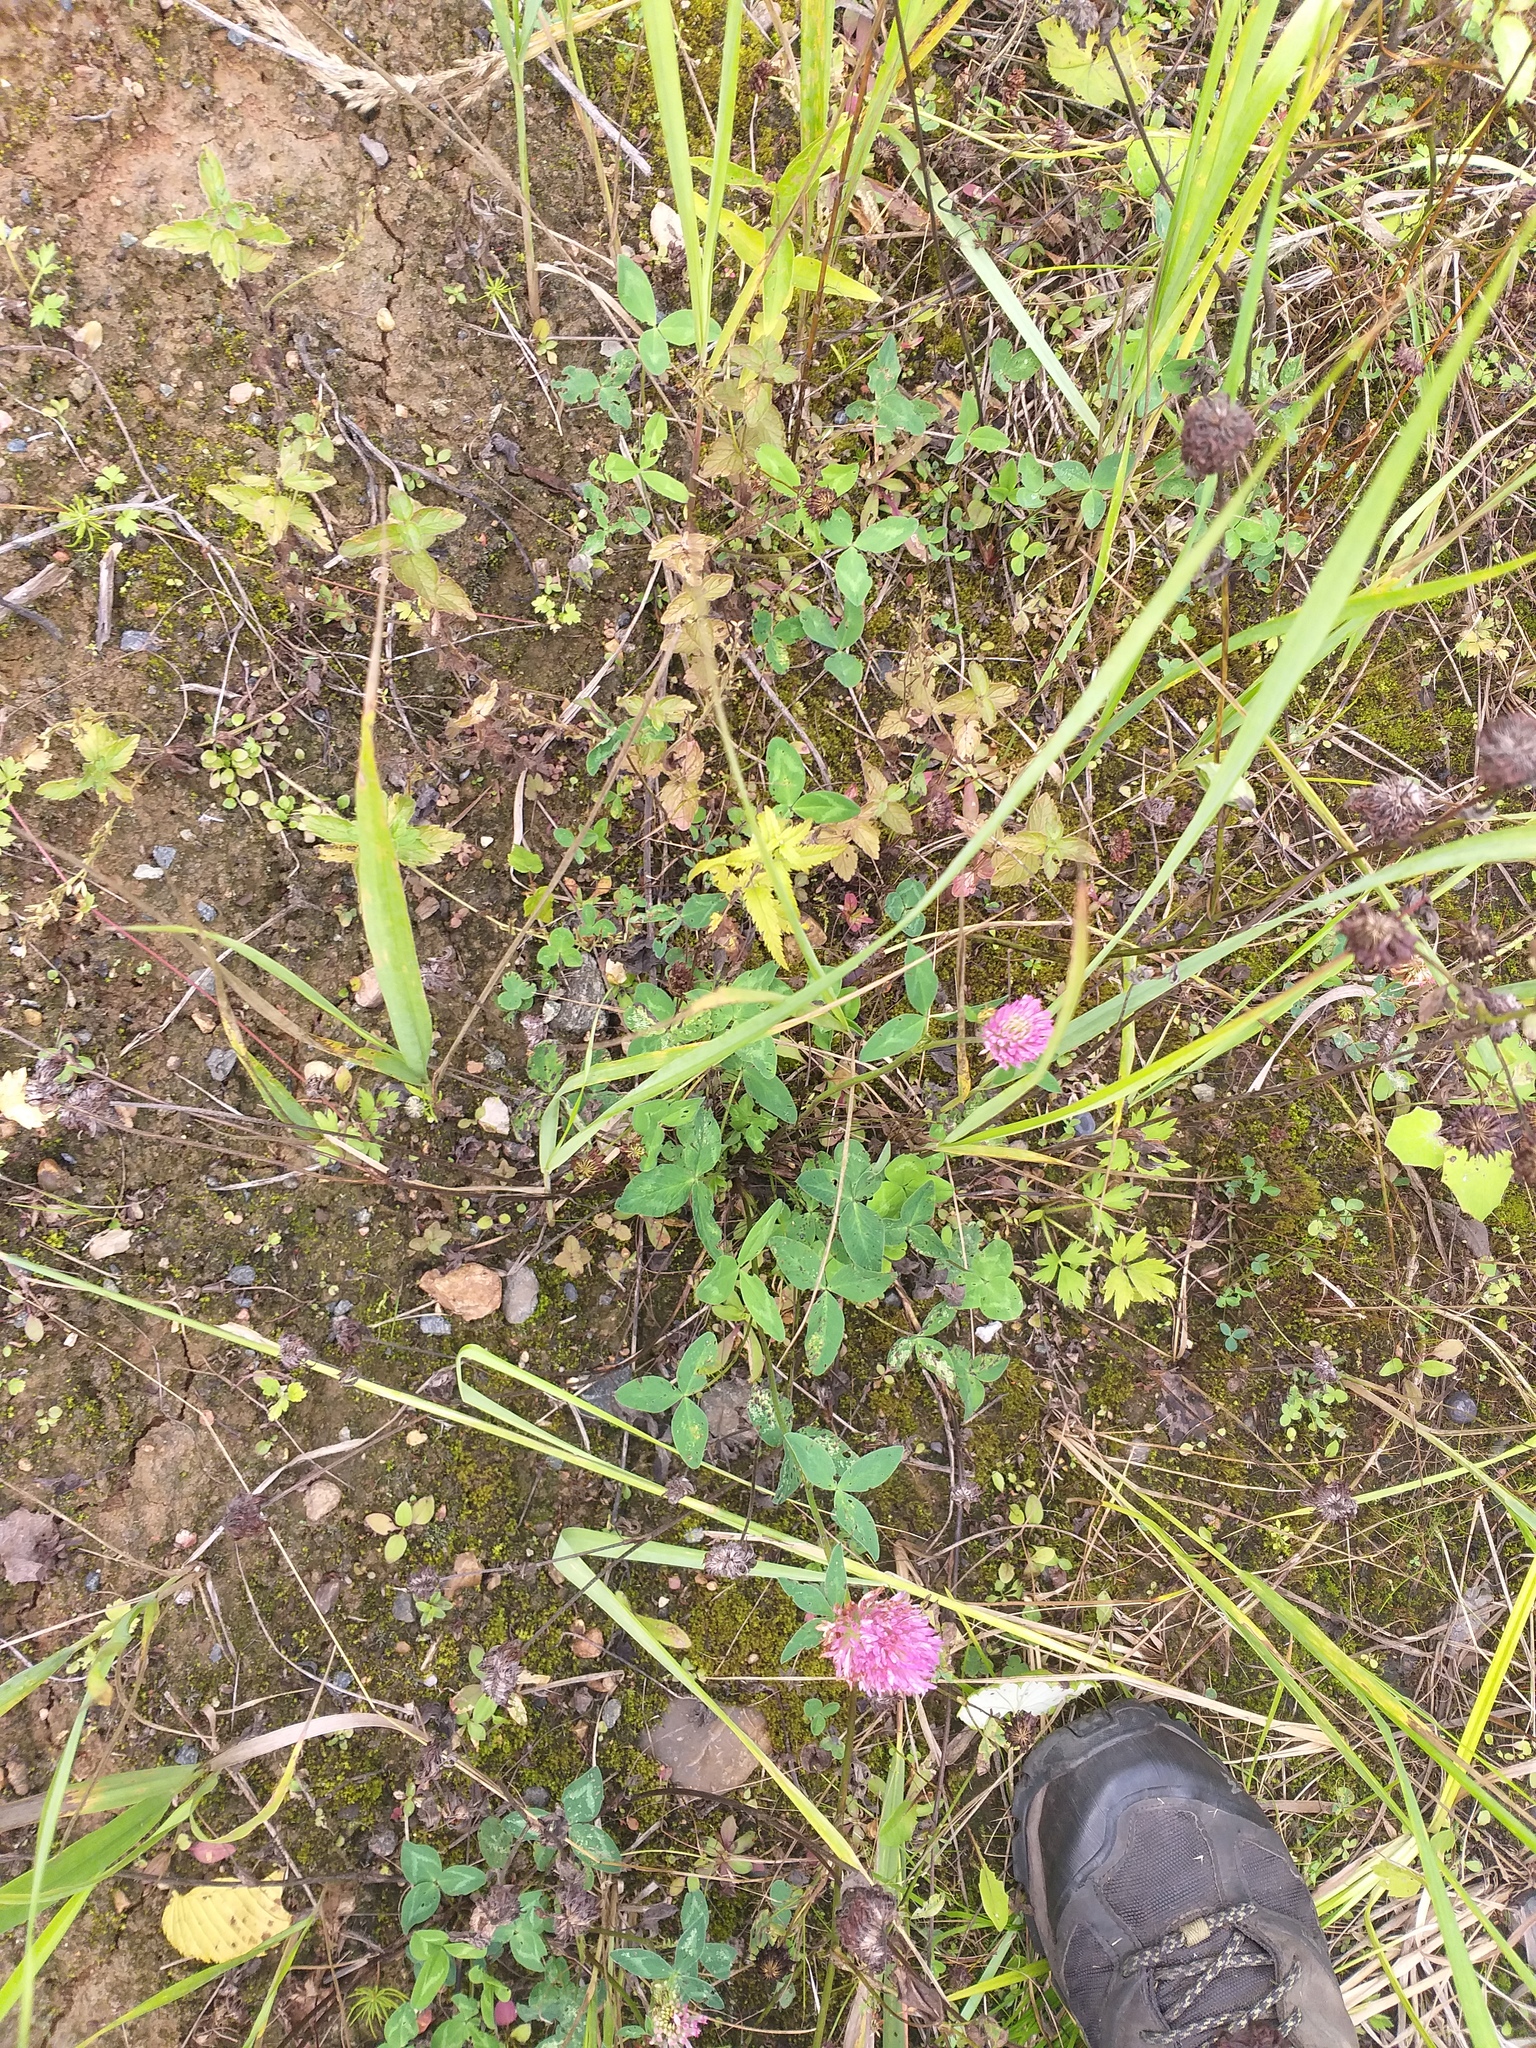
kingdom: Plantae
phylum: Tracheophyta
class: Magnoliopsida
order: Fabales
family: Fabaceae
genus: Trifolium
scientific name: Trifolium pratense
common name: Red clover
